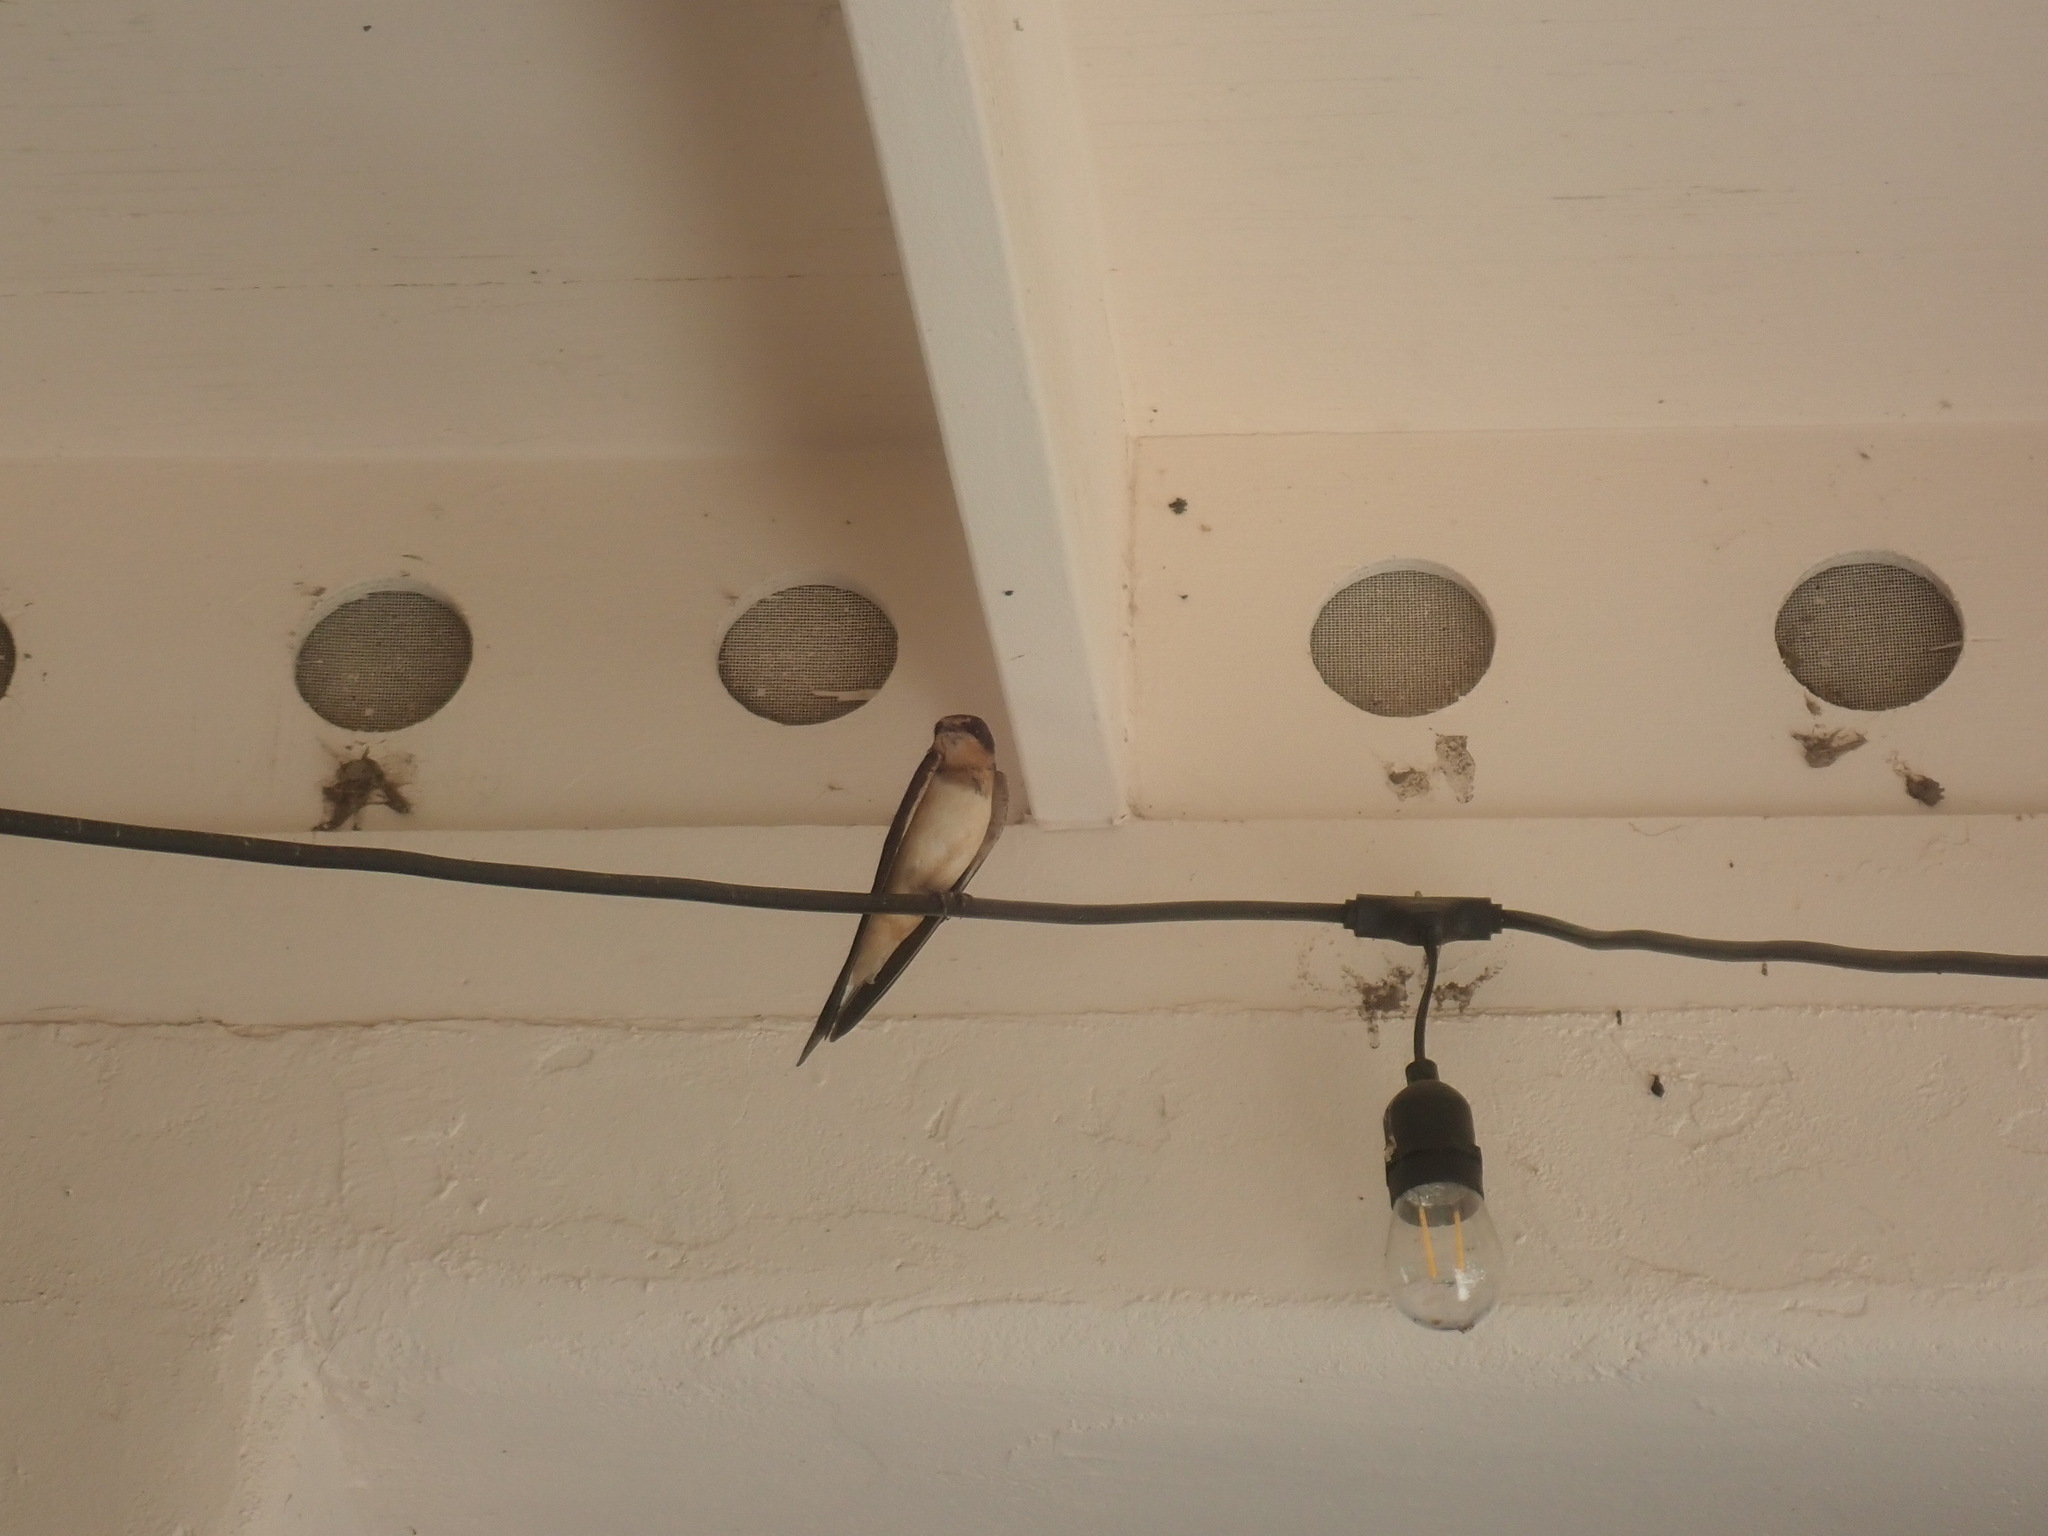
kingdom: Animalia
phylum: Chordata
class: Aves
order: Passeriformes
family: Hirundinidae
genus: Hirundo
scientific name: Hirundo rustica
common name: Barn swallow
